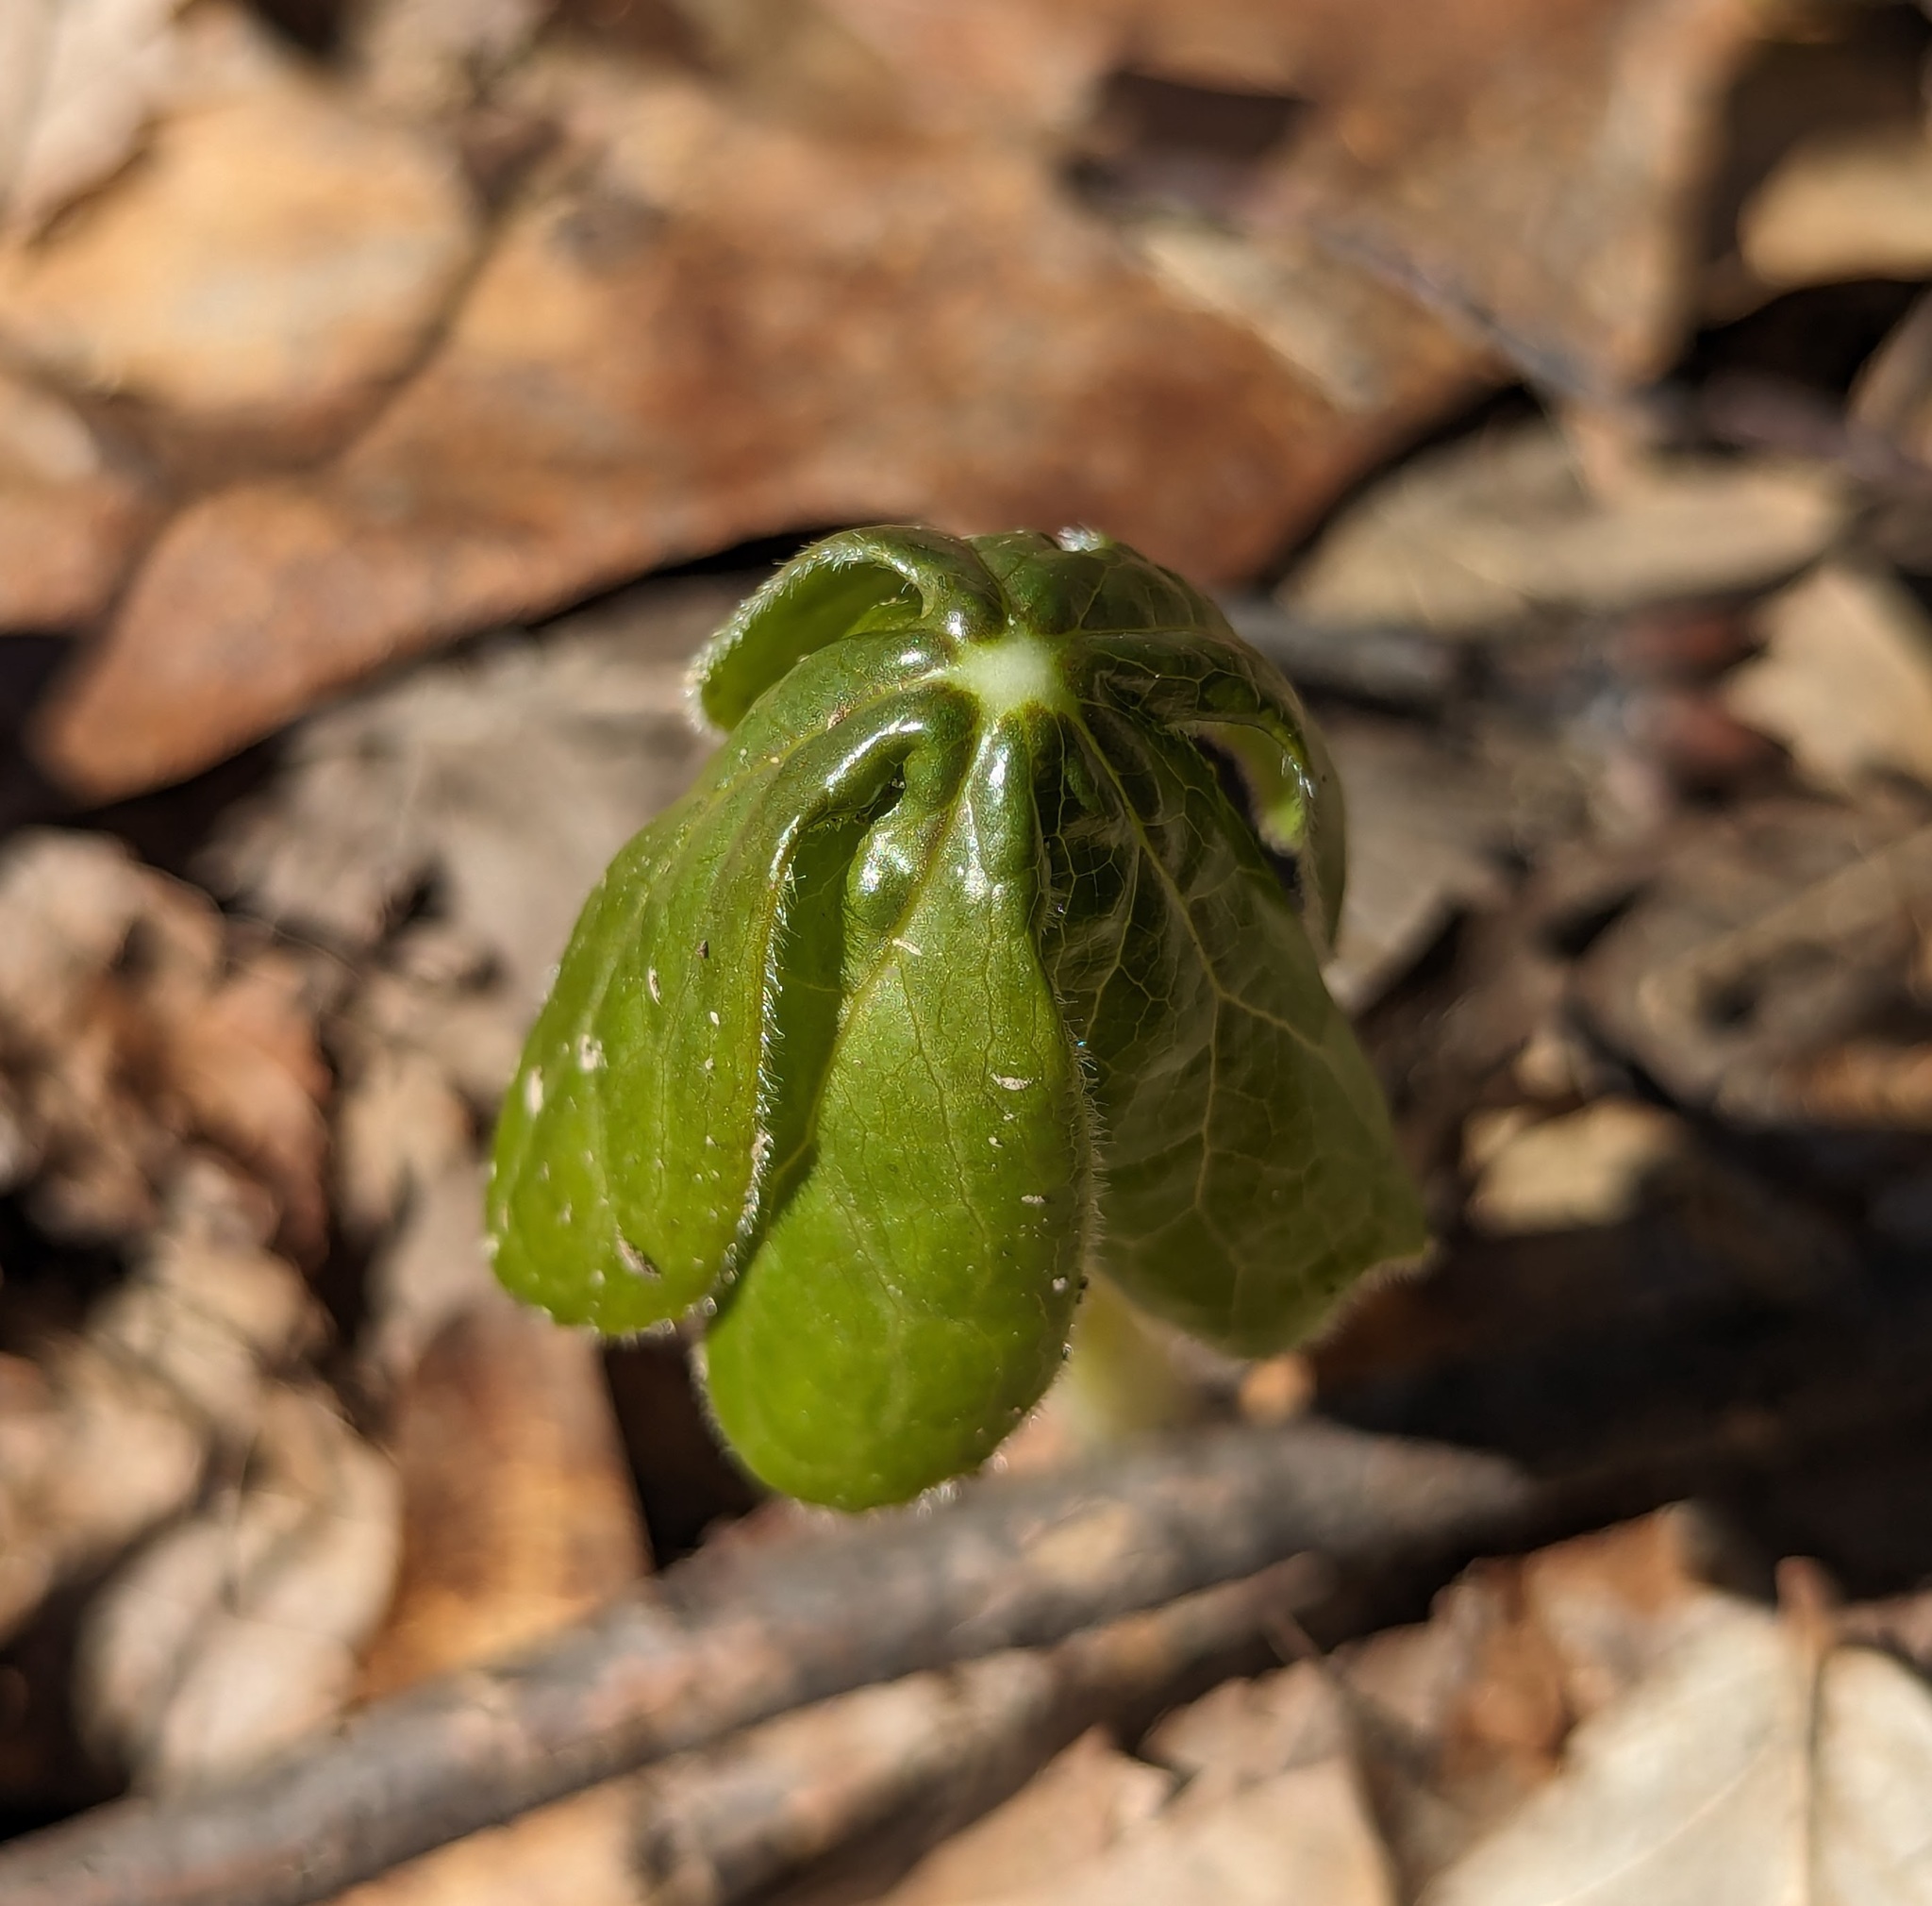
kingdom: Plantae
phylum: Tracheophyta
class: Magnoliopsida
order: Ranunculales
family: Berberidaceae
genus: Podophyllum
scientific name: Podophyllum peltatum
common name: Wild mandrake
